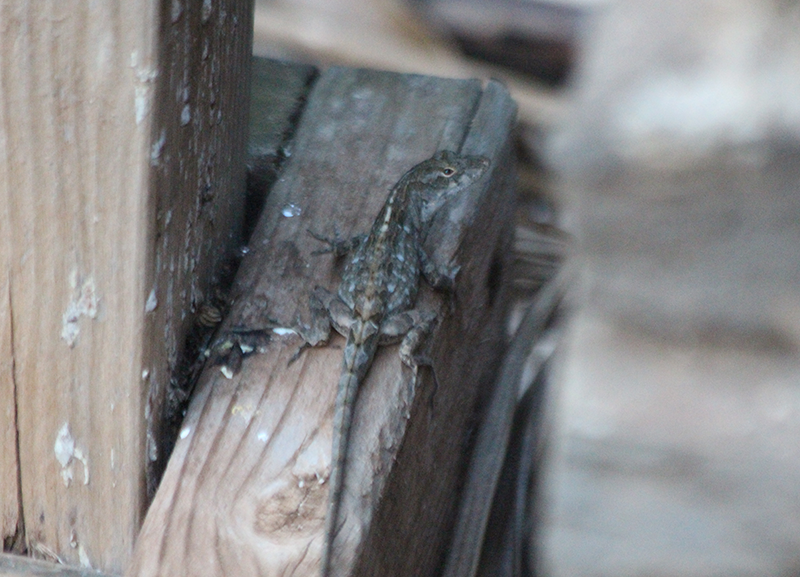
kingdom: Animalia
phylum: Chordata
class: Squamata
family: Dactyloidae
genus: Anolis
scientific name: Anolis sagrei
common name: Brown anole
